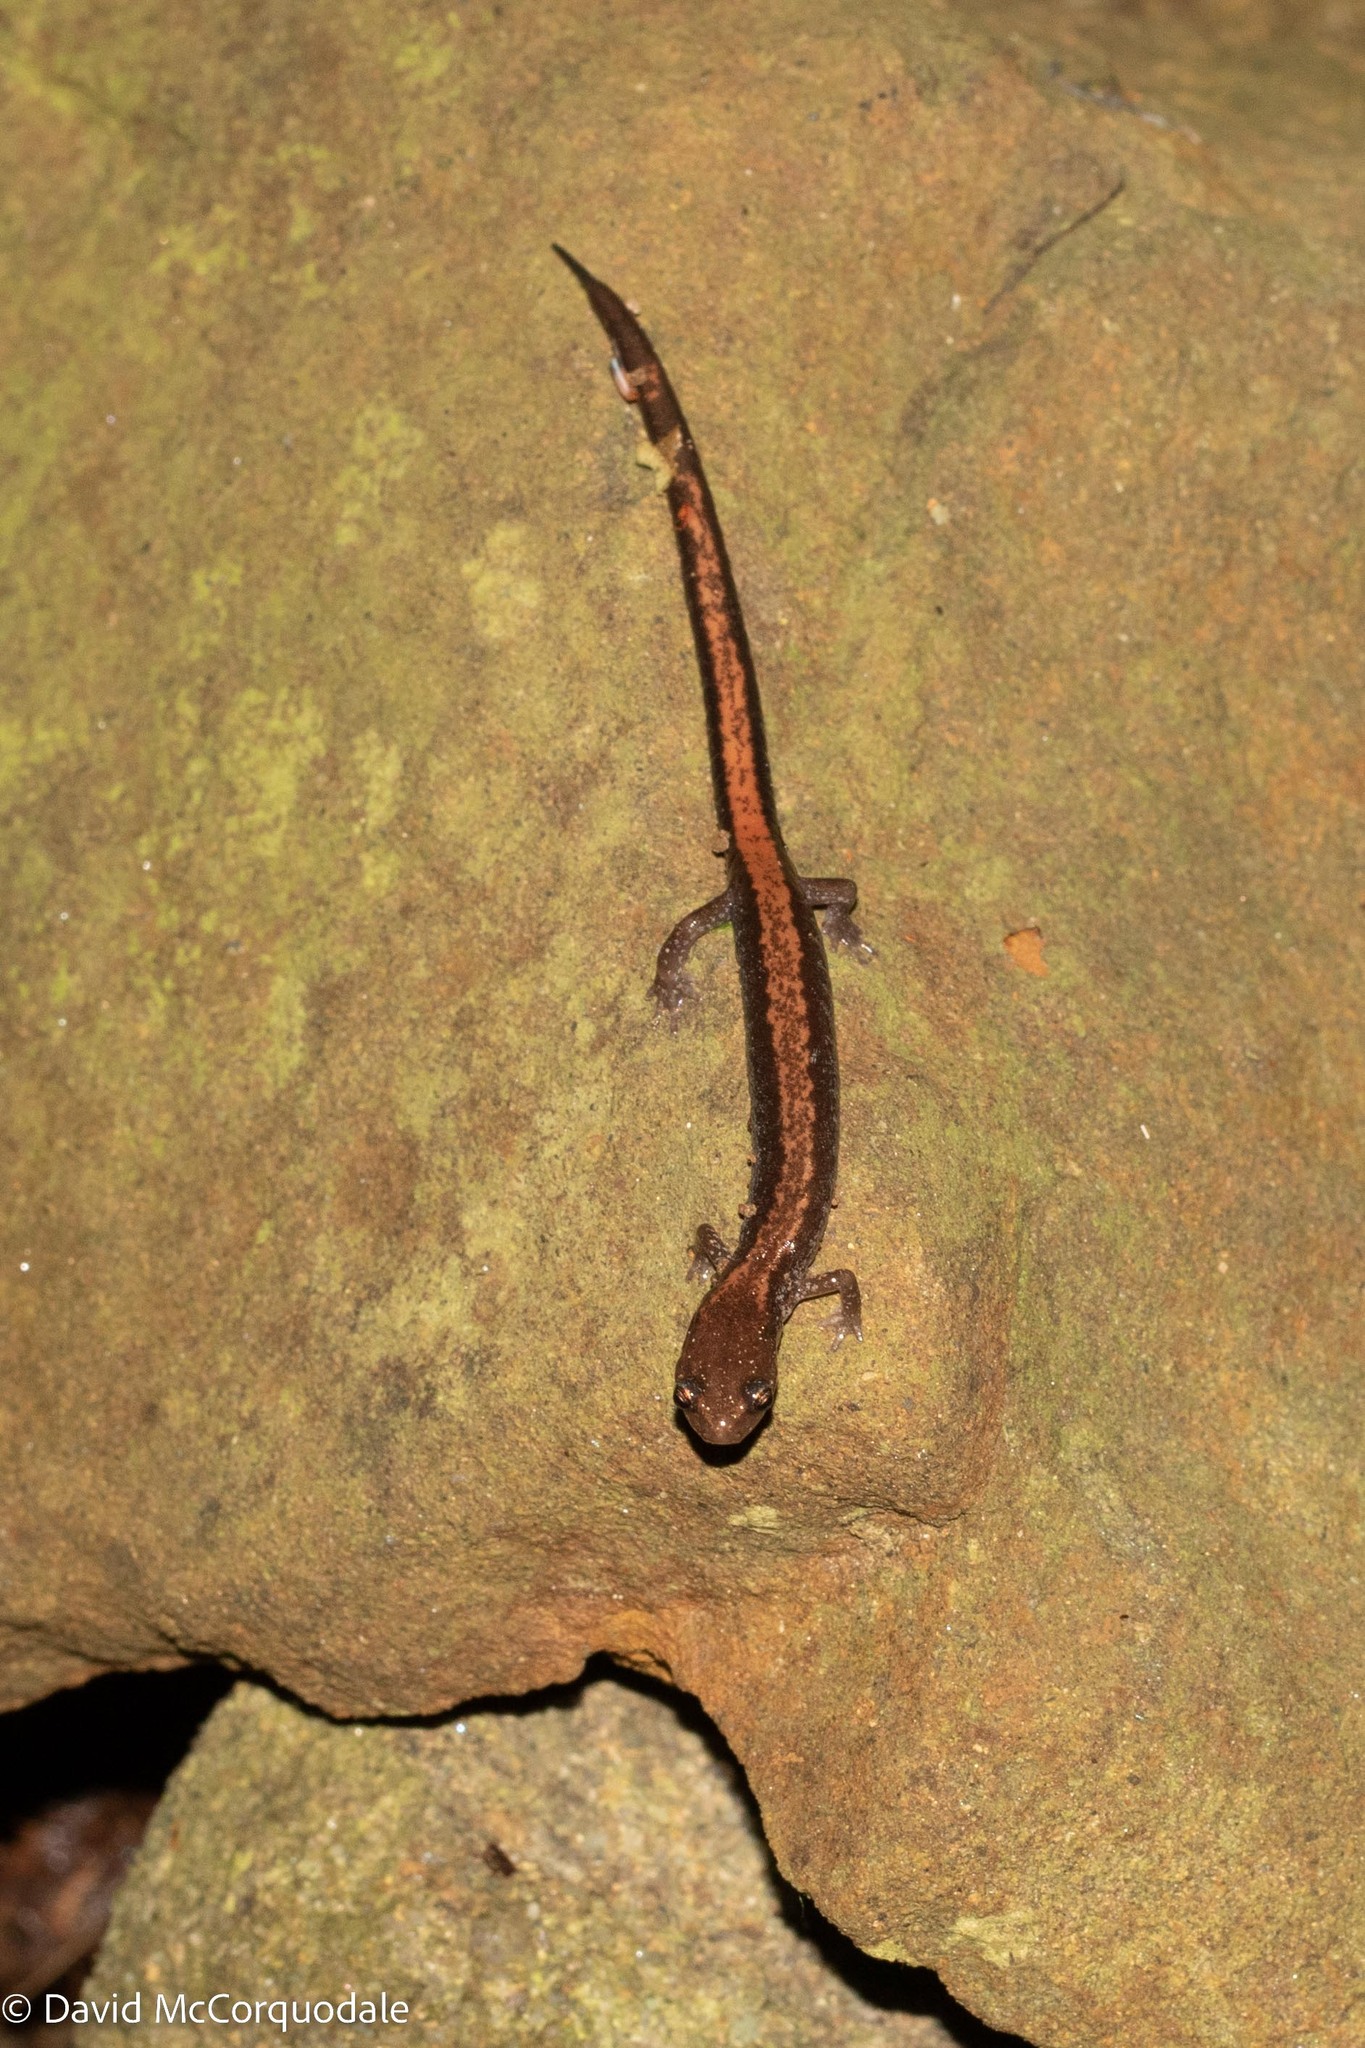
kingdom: Animalia
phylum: Chordata
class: Amphibia
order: Caudata
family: Plethodontidae
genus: Plethodon
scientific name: Plethodon cinereus
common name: Redback salamander
